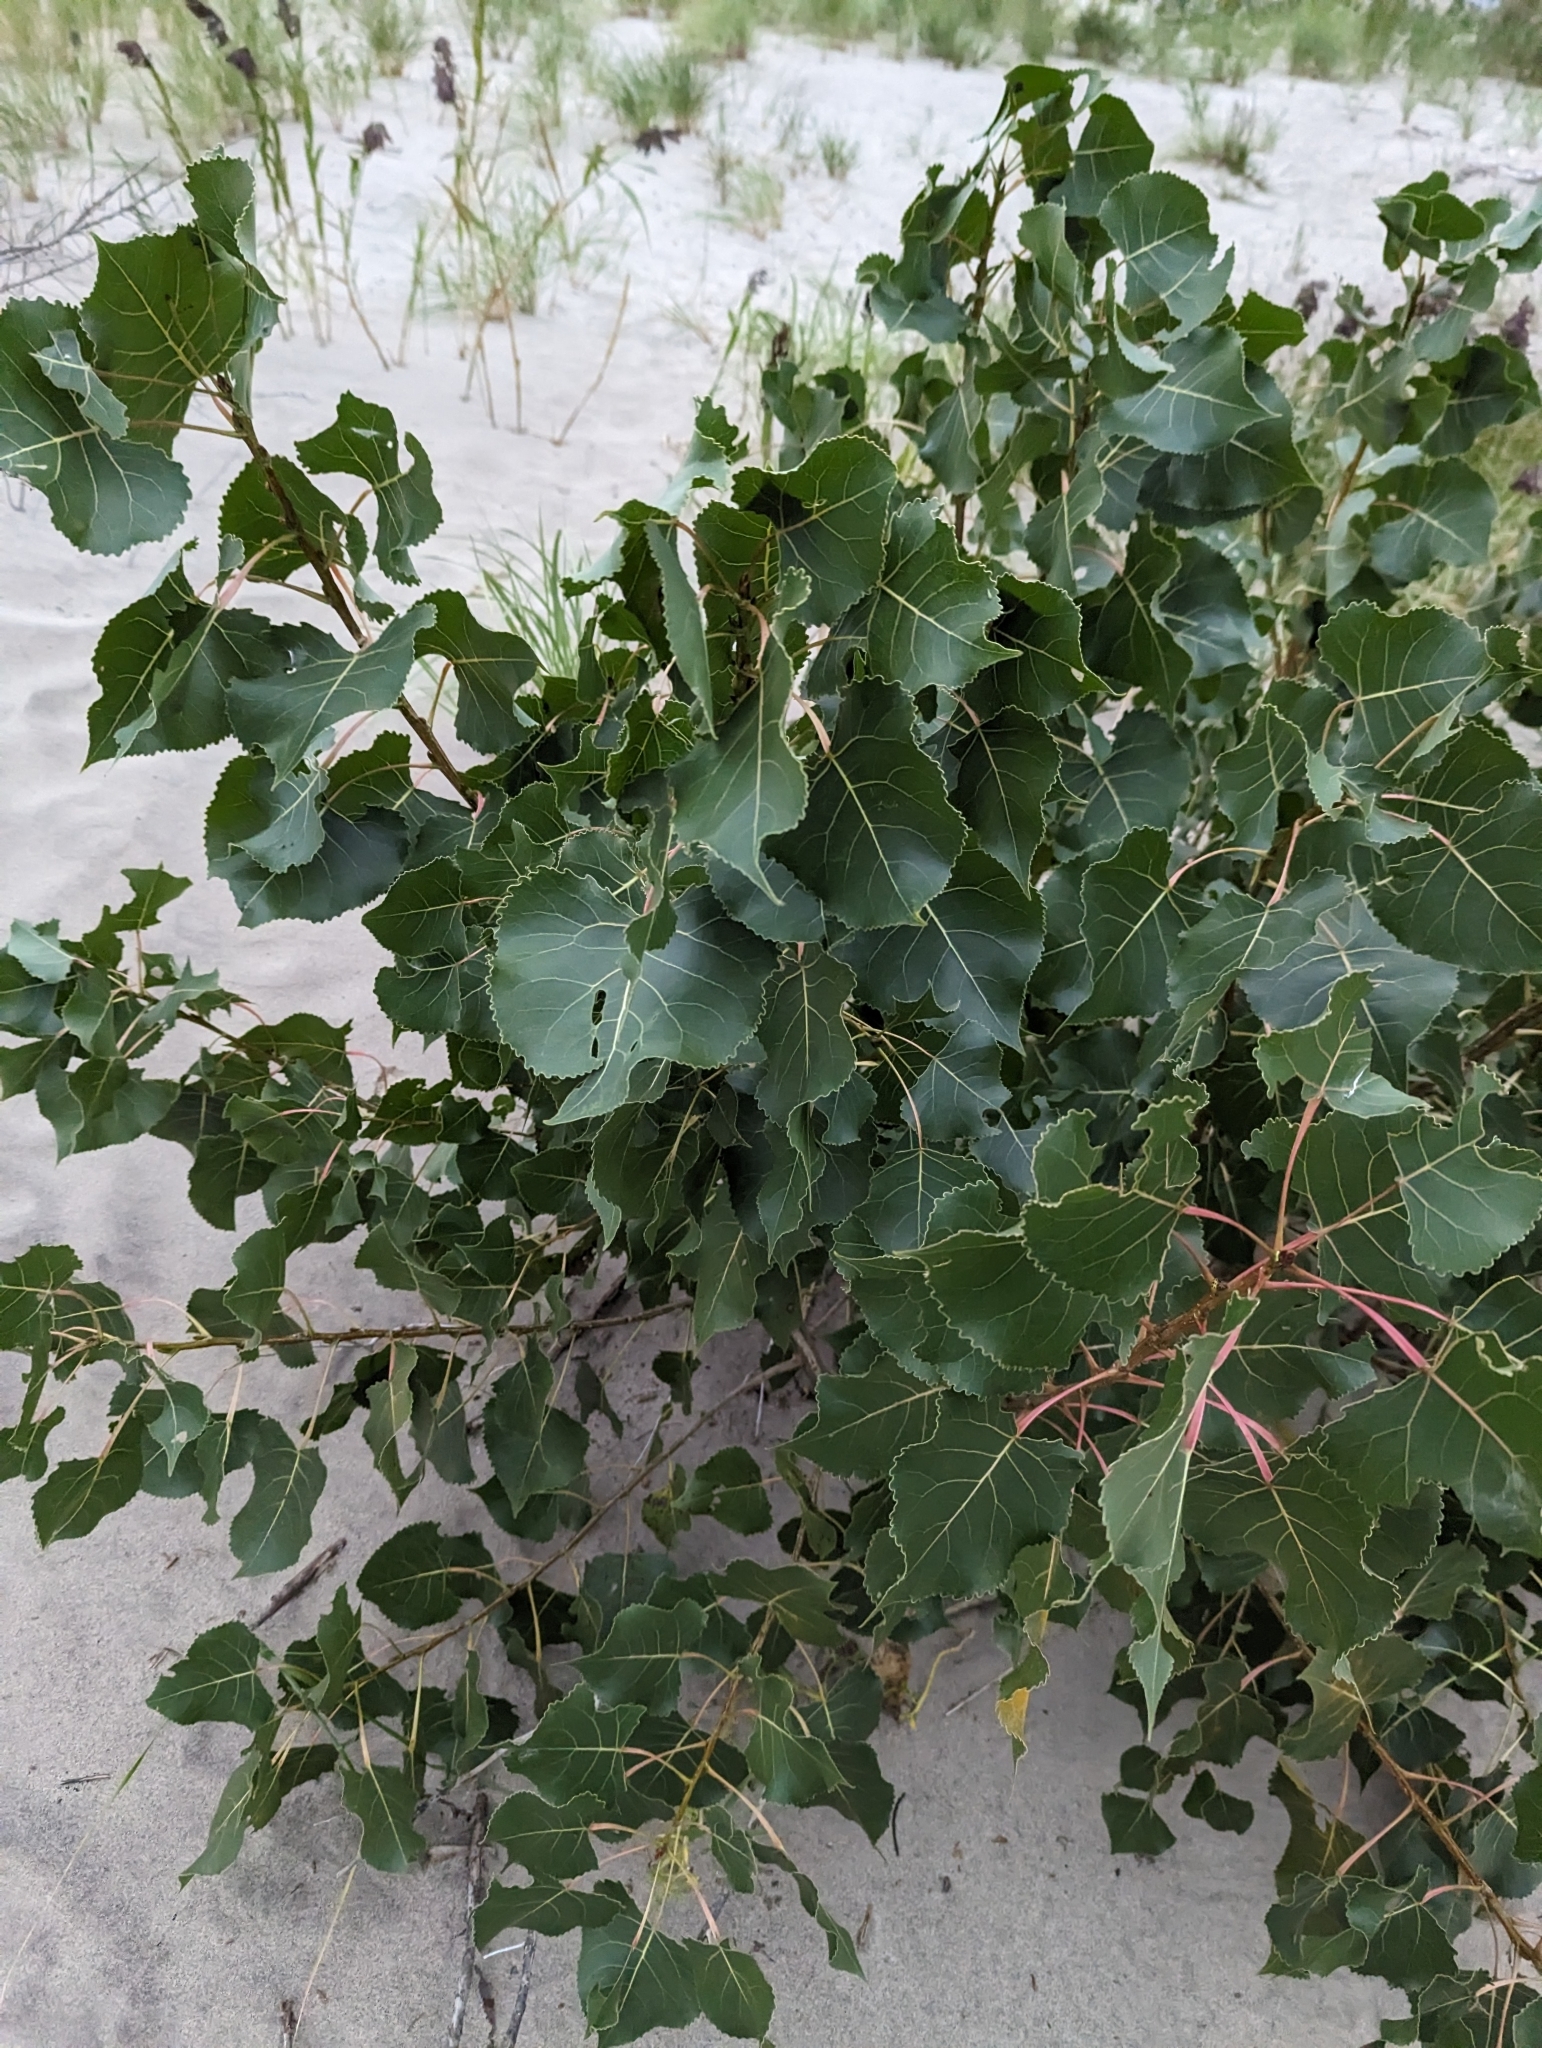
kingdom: Plantae
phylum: Tracheophyta
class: Magnoliopsida
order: Malpighiales
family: Salicaceae
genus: Populus
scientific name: Populus deltoides
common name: Eastern cottonwood
